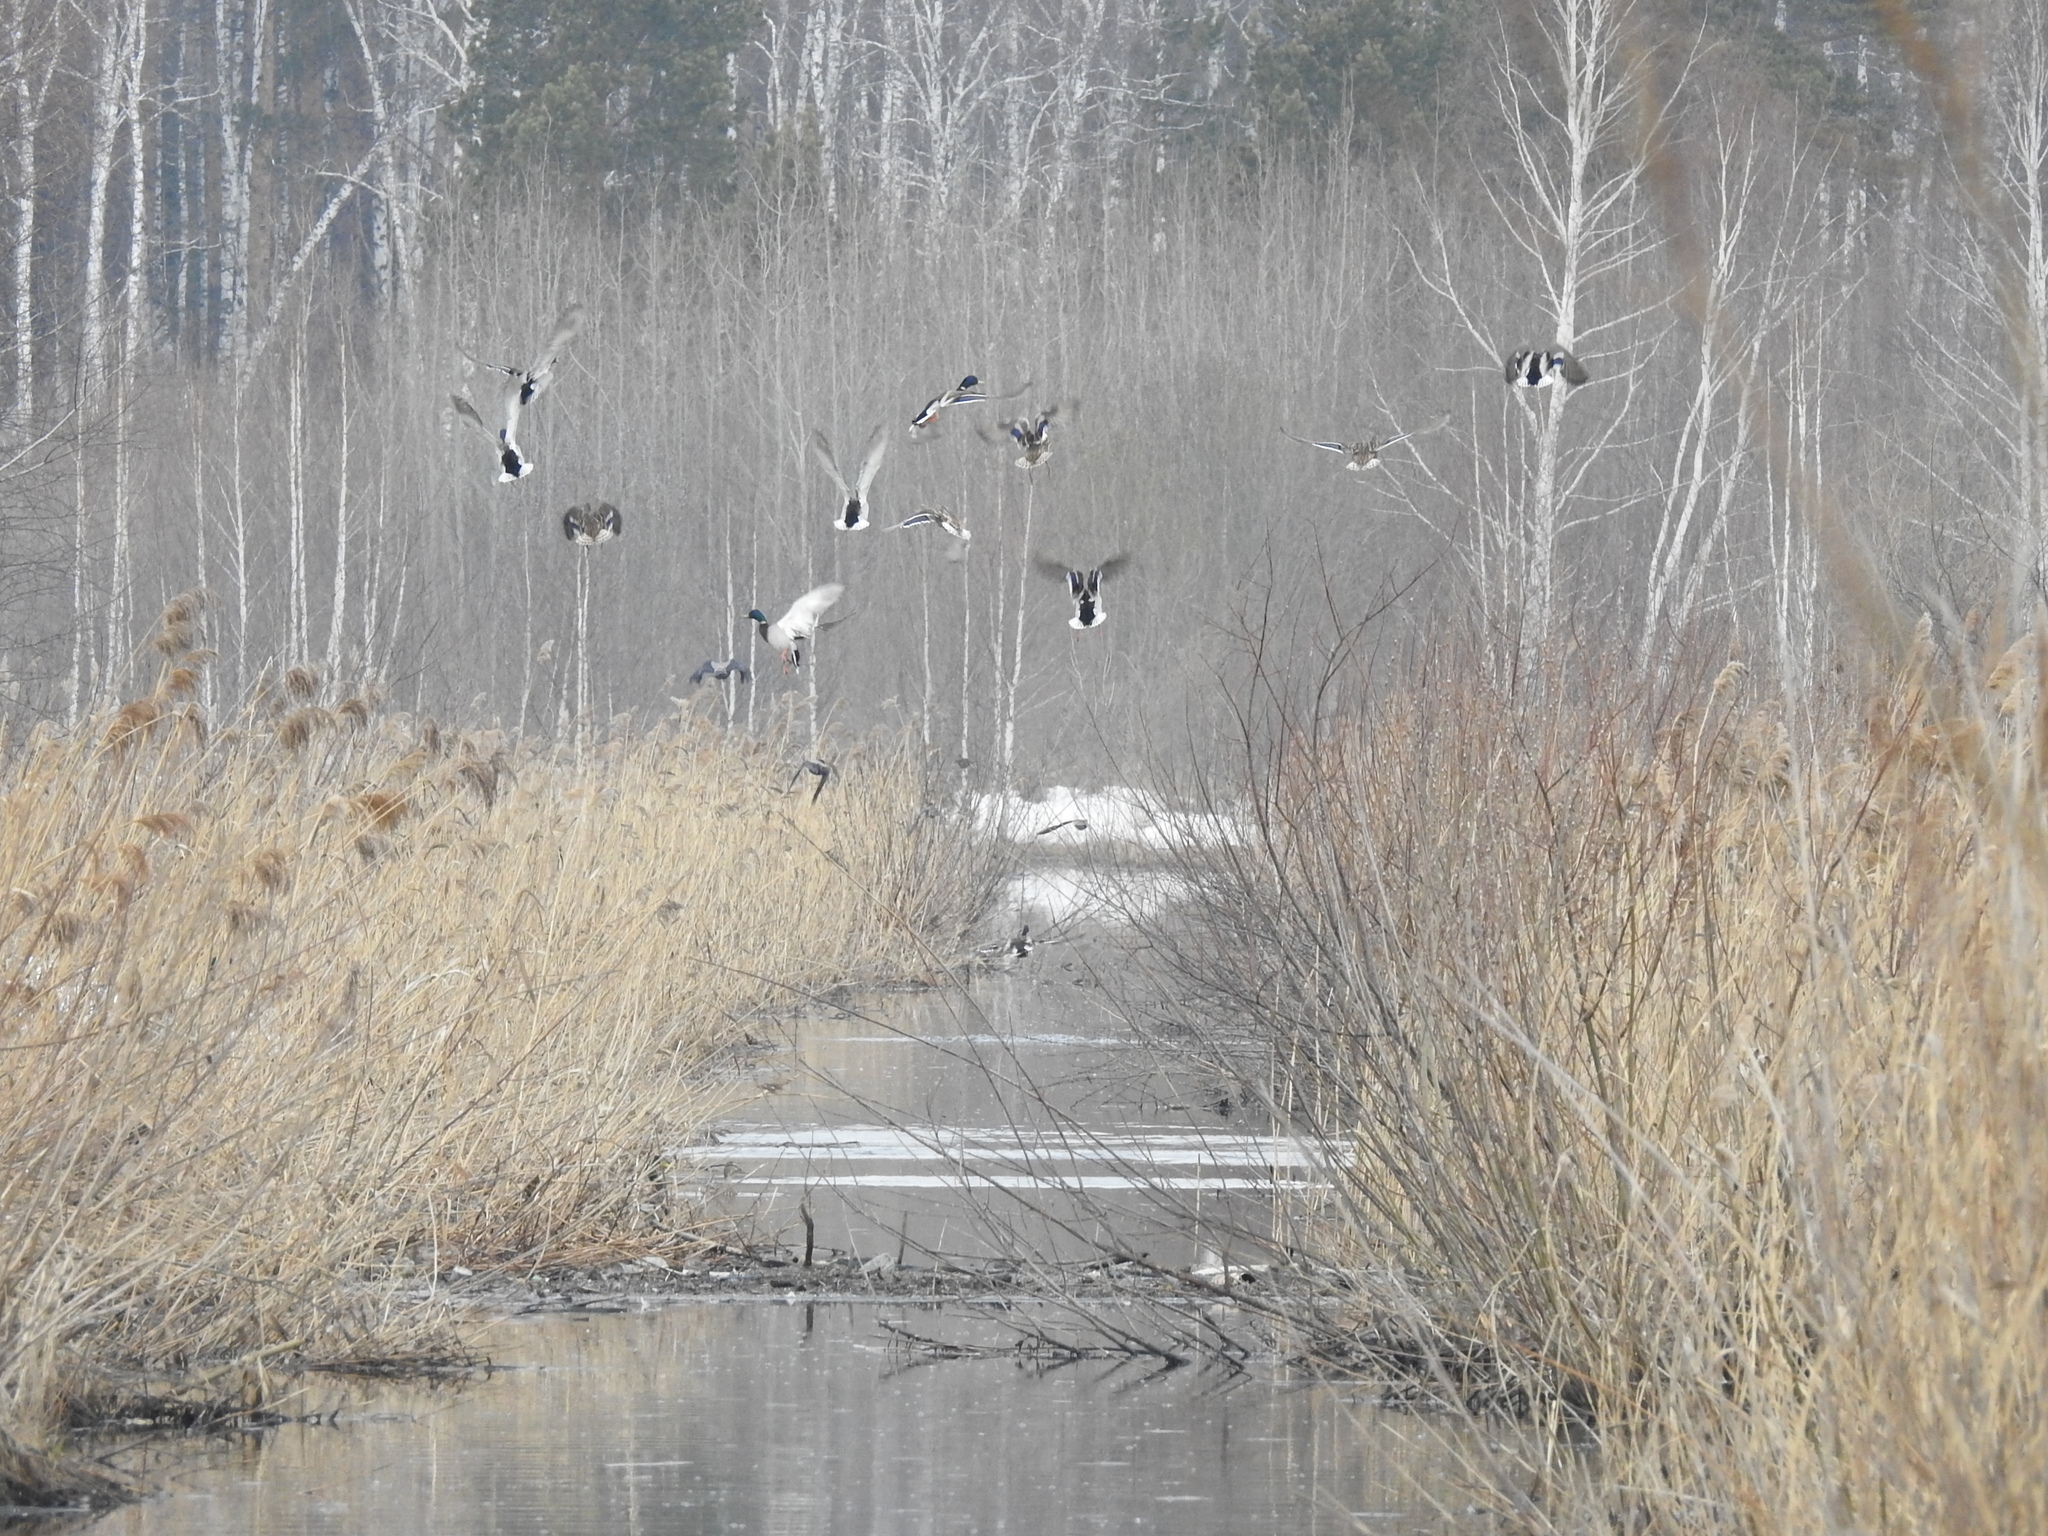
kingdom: Animalia
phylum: Chordata
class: Aves
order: Anseriformes
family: Anatidae
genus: Anas
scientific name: Anas platyrhynchos
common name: Mallard
